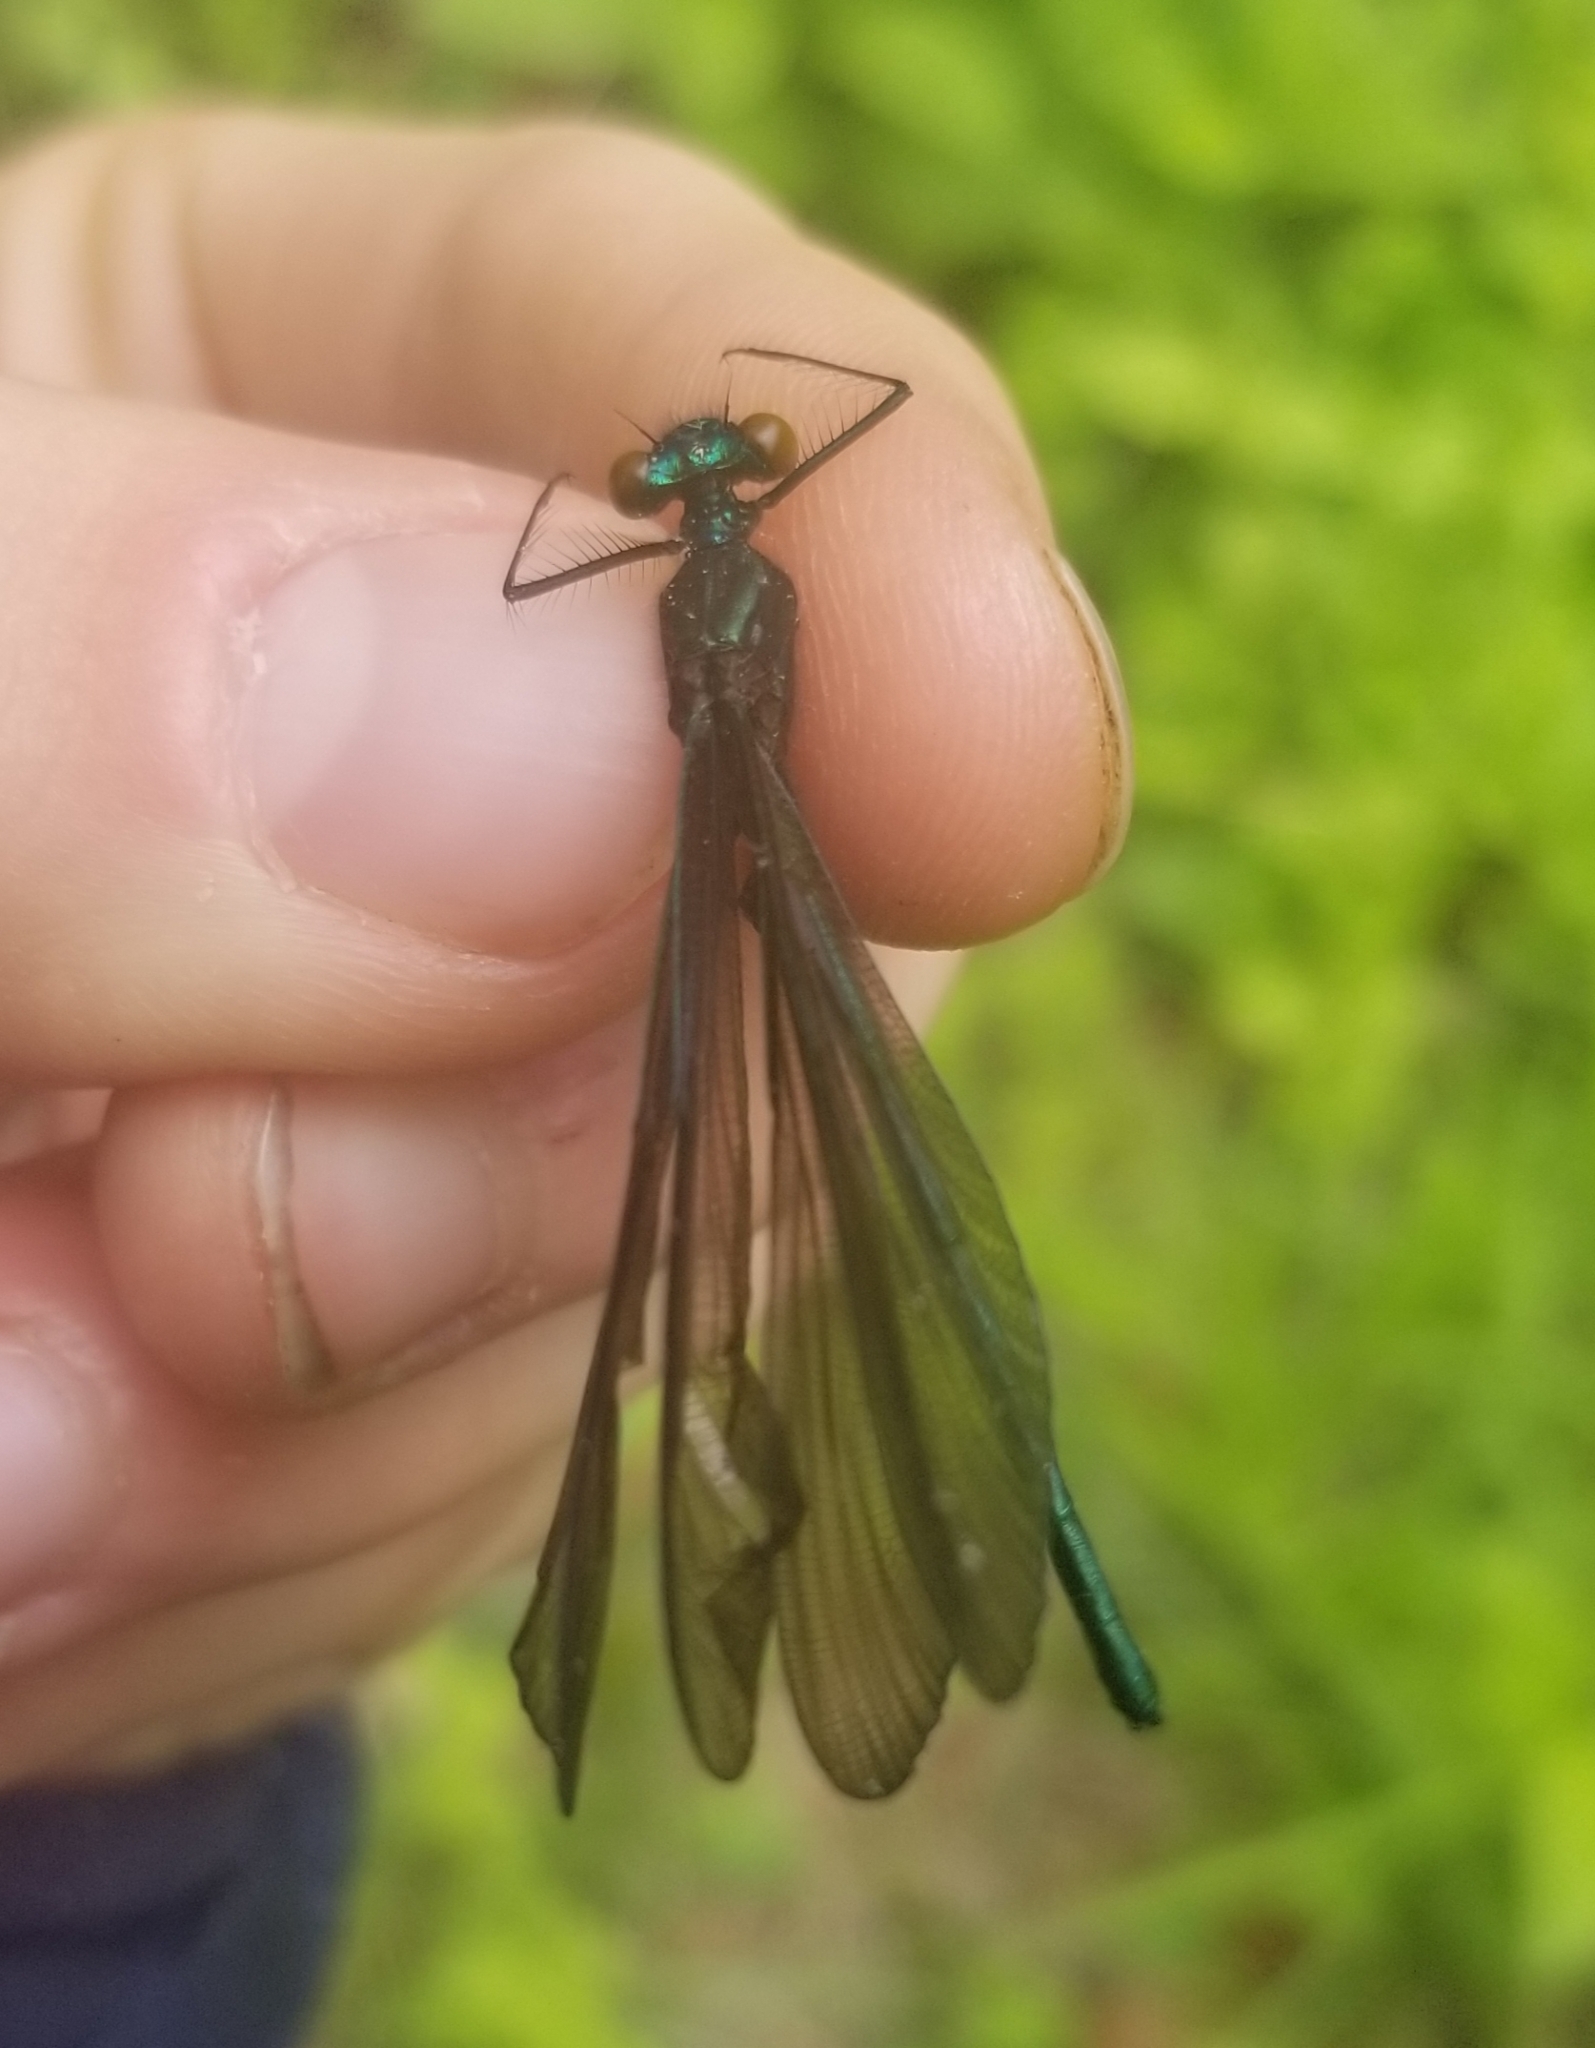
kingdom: Animalia
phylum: Arthropoda
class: Insecta
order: Odonata
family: Calopterygidae
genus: Calopteryx
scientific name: Calopteryx maculata
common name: Ebony jewelwing
